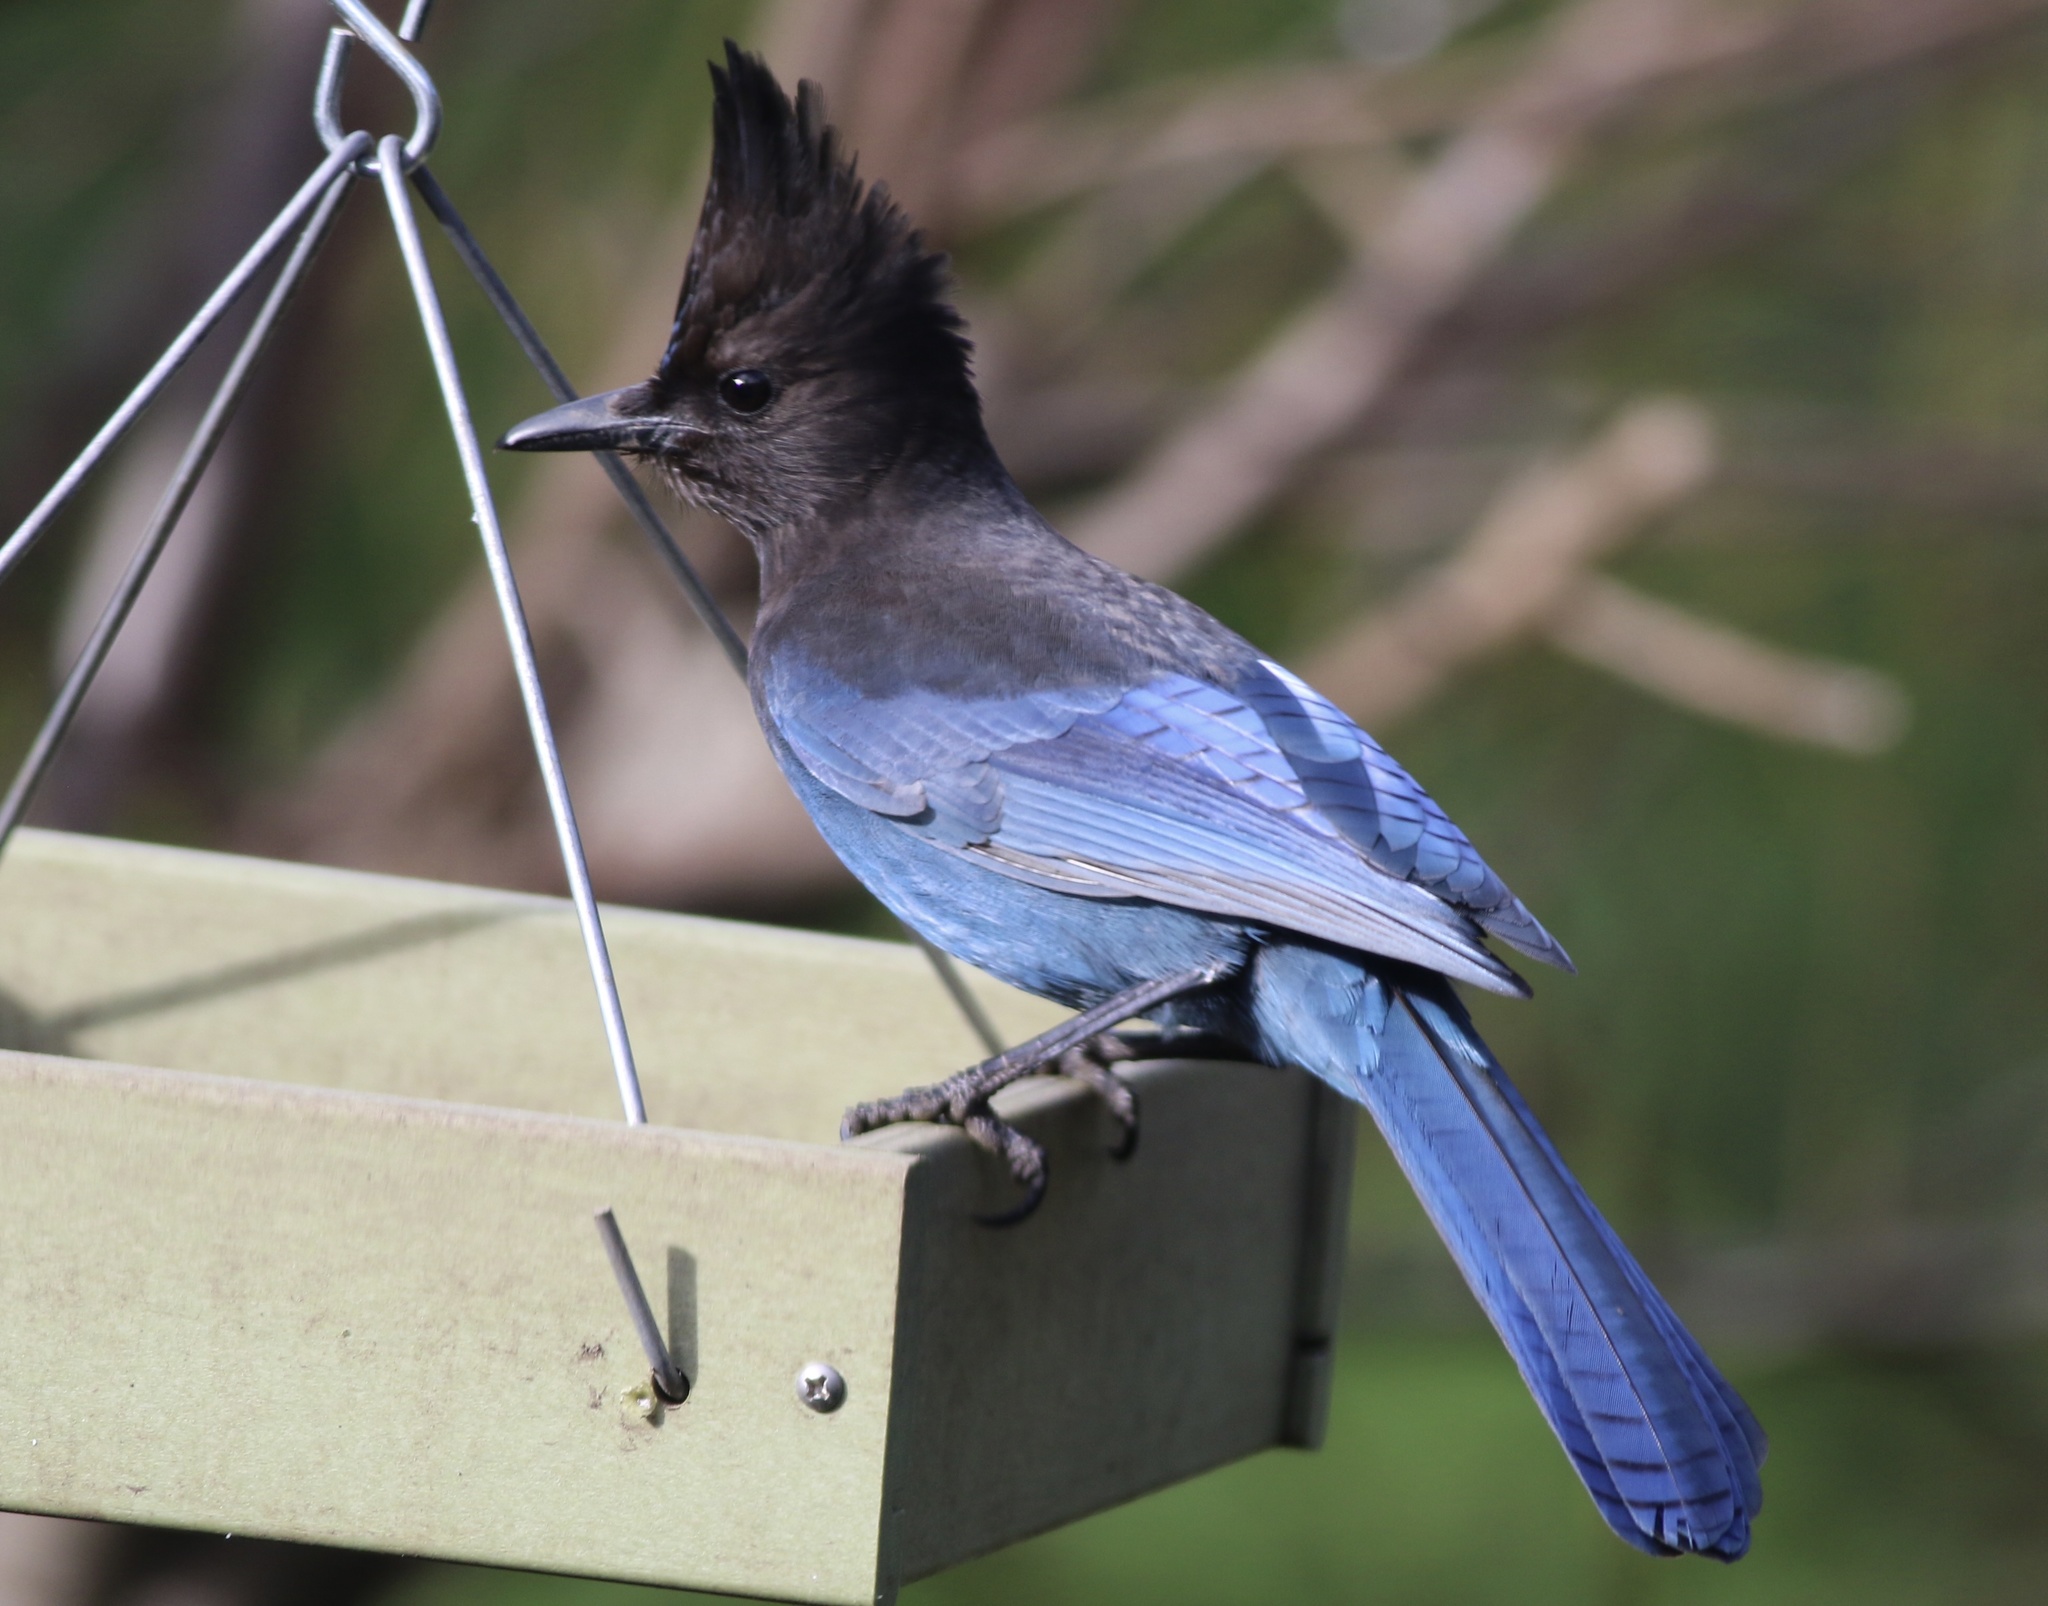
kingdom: Animalia
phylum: Chordata
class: Aves
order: Passeriformes
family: Corvidae
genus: Cyanocitta
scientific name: Cyanocitta stelleri
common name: Steller's jay
